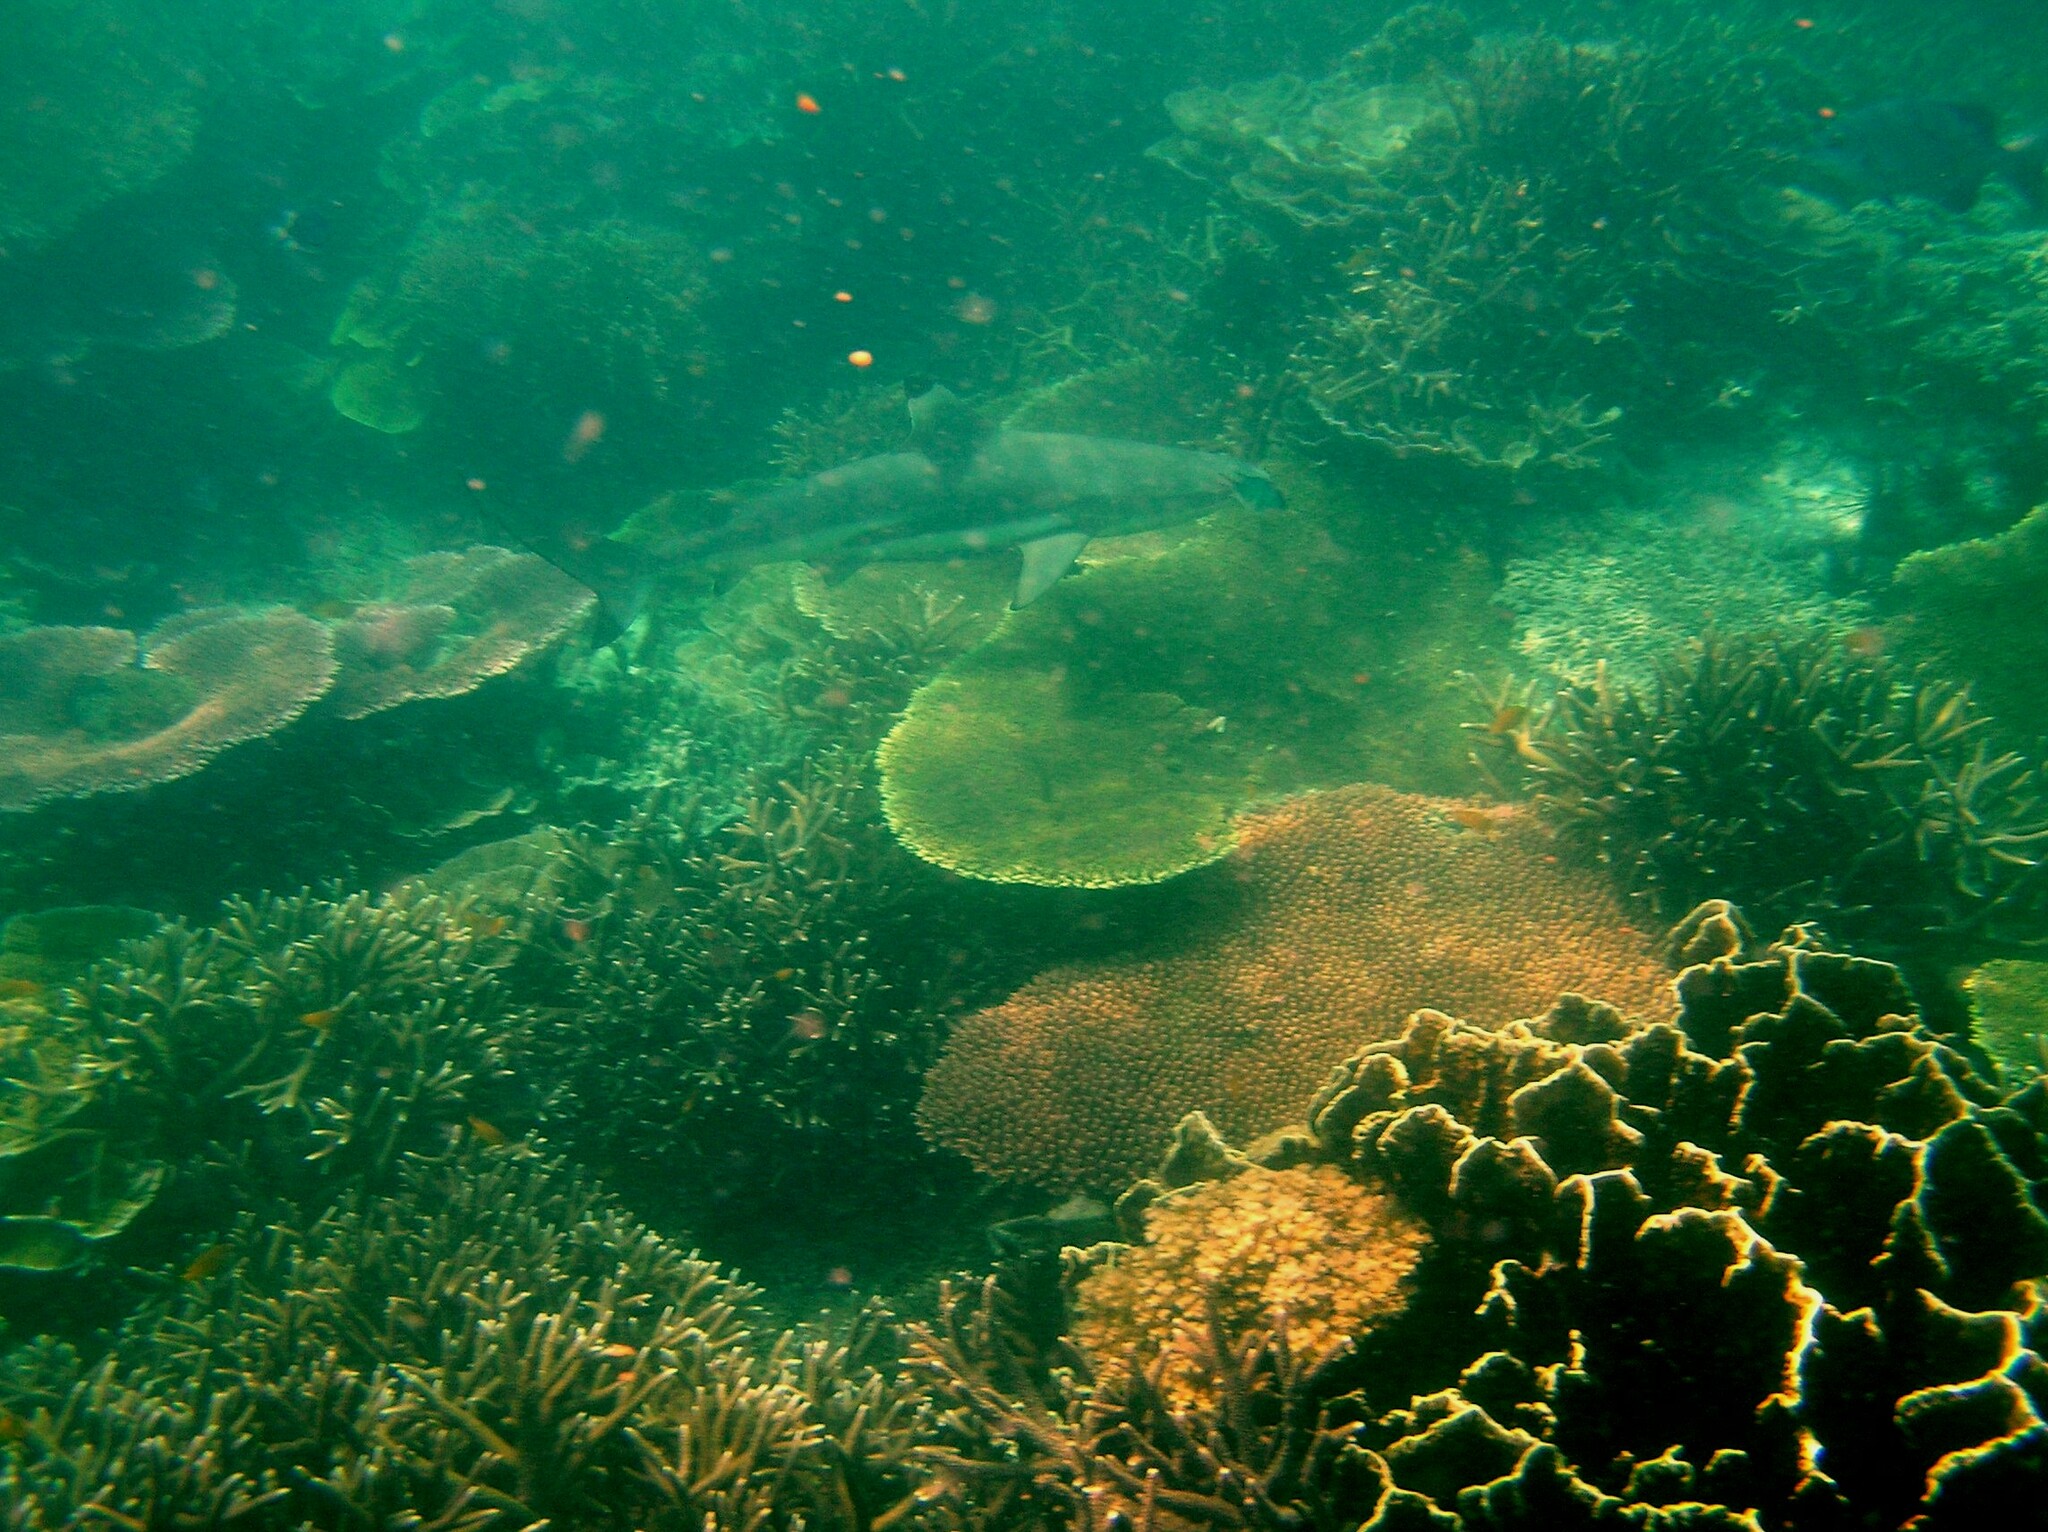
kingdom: Animalia
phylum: Chordata
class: Elasmobranchii
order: Carcharhiniformes
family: Carcharhinidae
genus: Carcharhinus
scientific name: Carcharhinus melanopterus
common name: Blacktip reef shark
